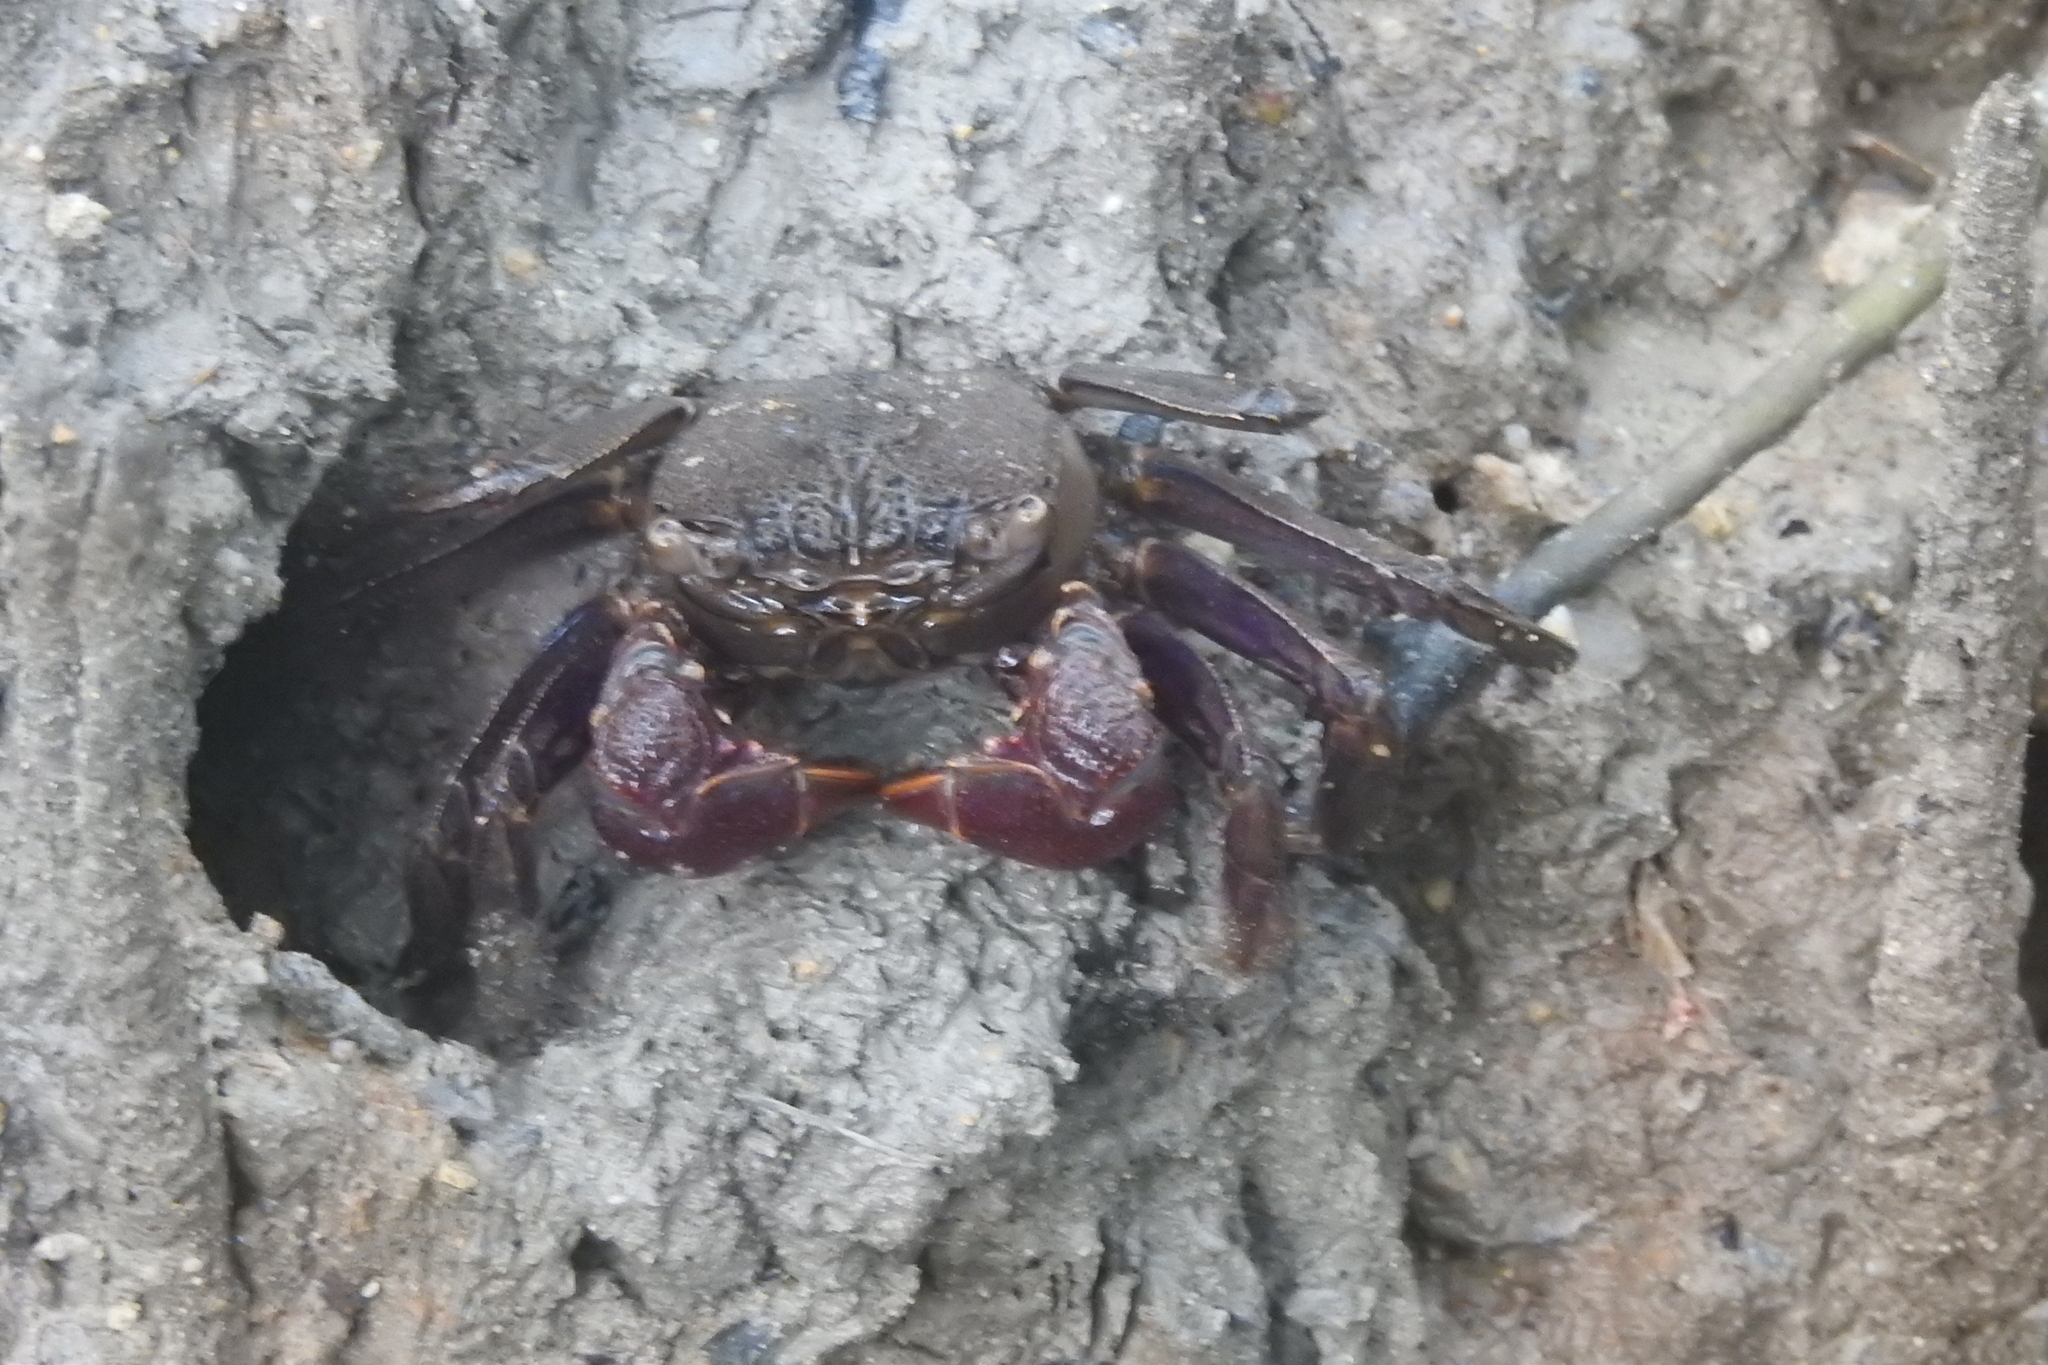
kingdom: Animalia
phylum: Arthropoda
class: Malacostraca
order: Decapoda
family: Sesarmidae
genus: Episesarma
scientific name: Episesarma chentongense
